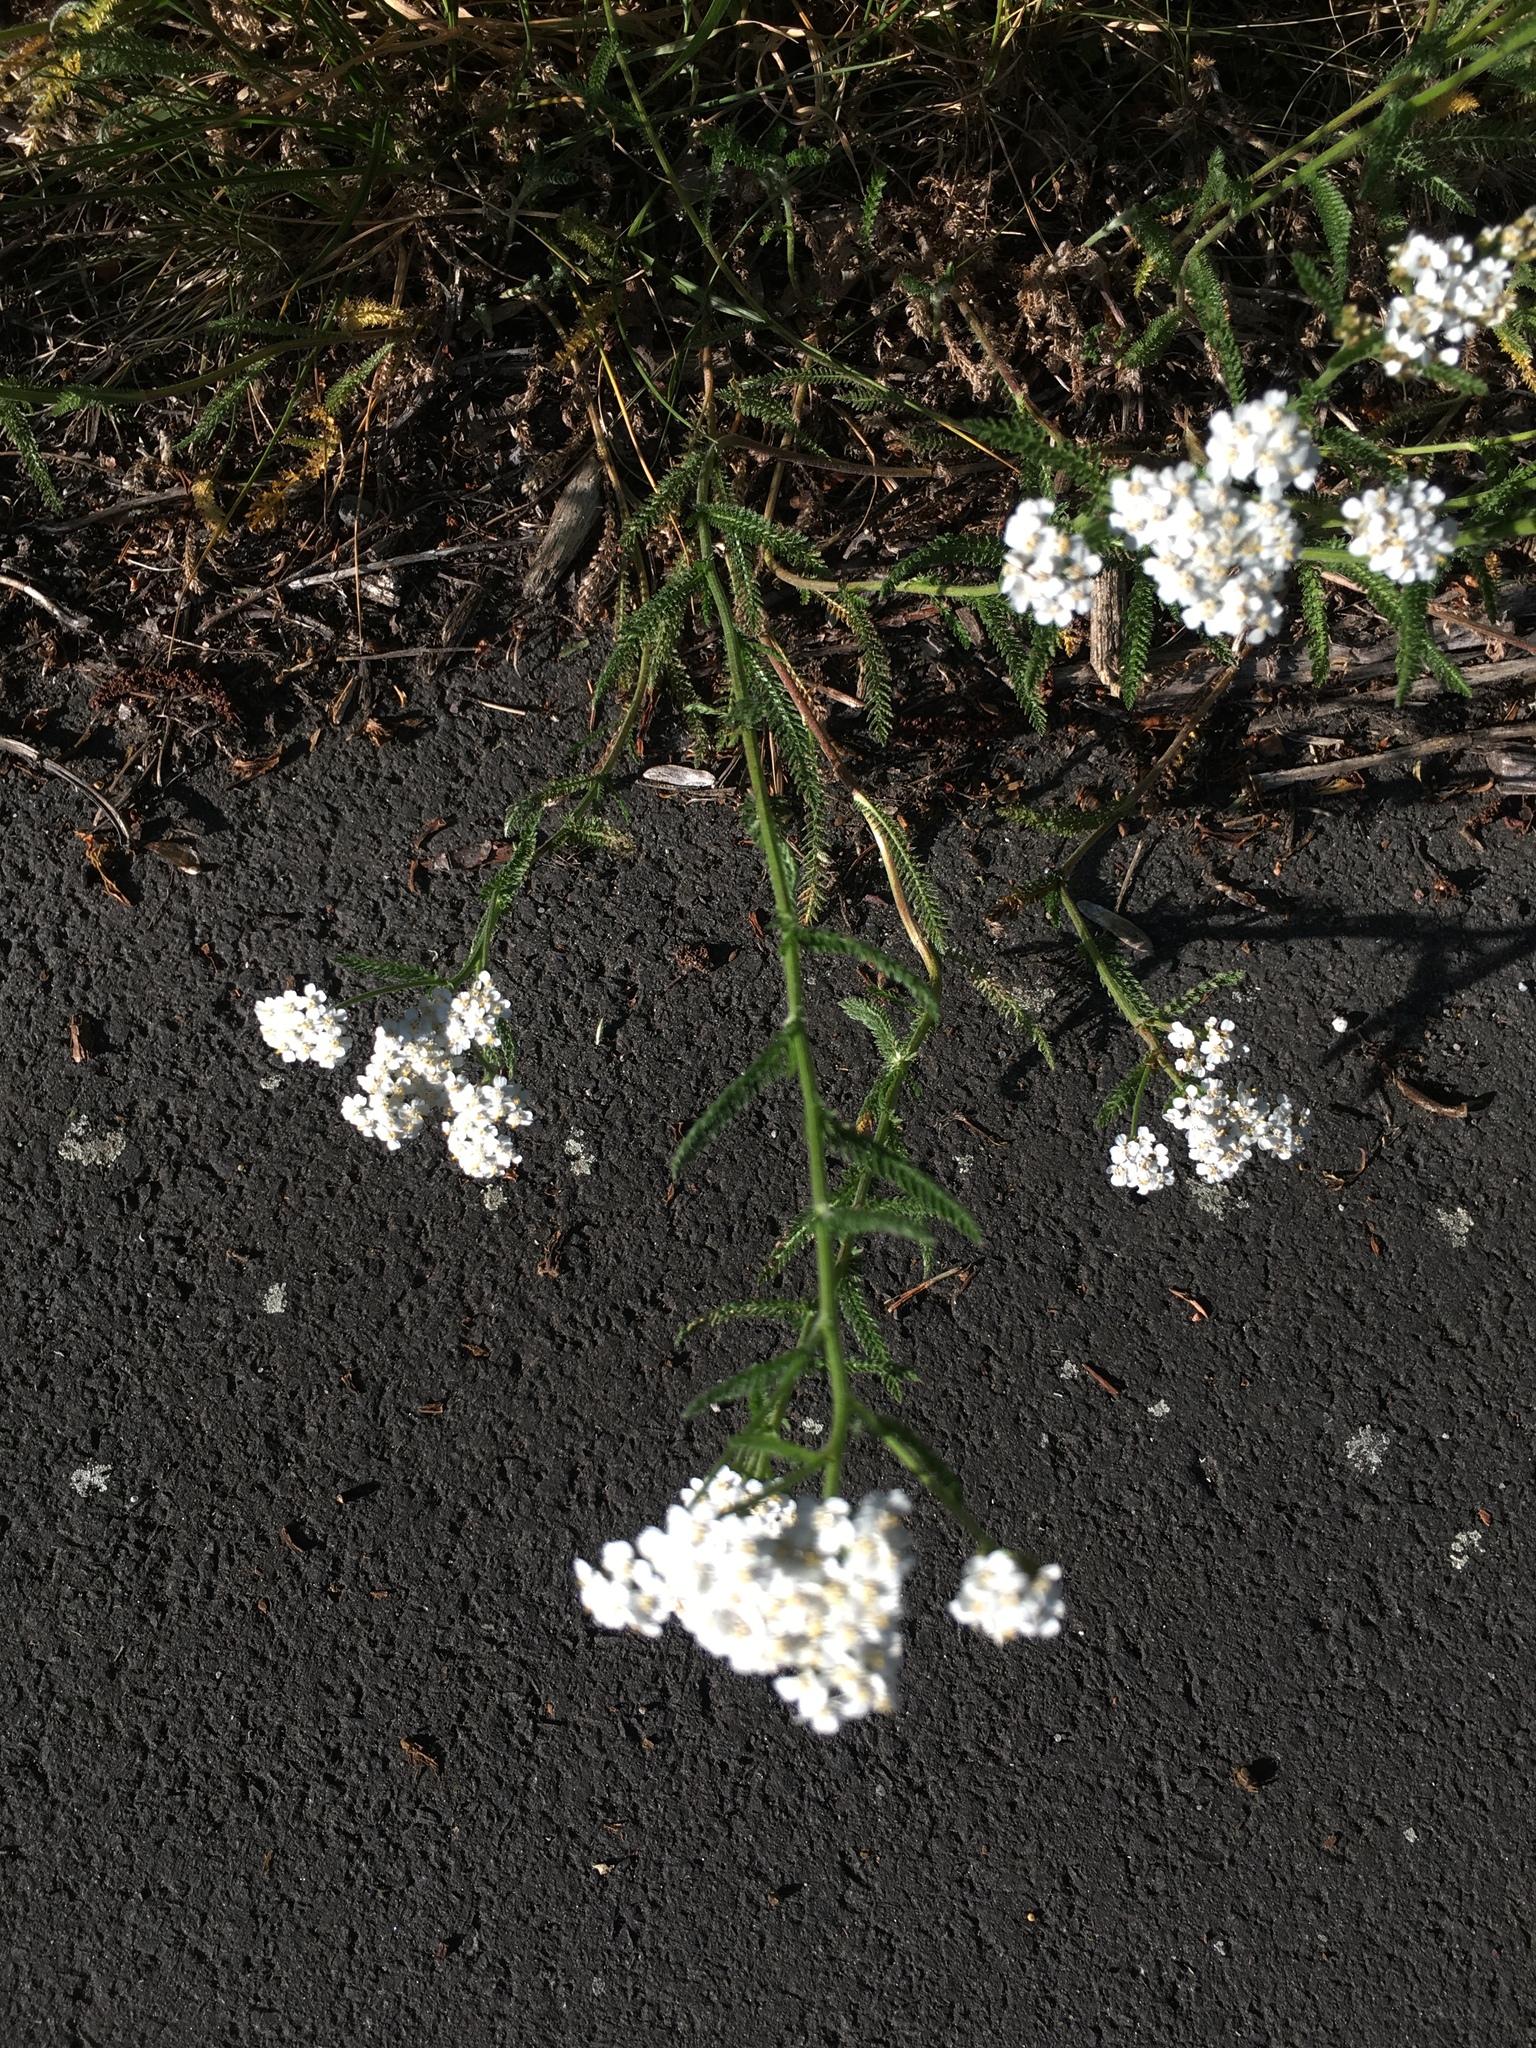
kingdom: Plantae
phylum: Tracheophyta
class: Magnoliopsida
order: Asterales
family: Asteraceae
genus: Achillea
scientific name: Achillea millefolium
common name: Yarrow
